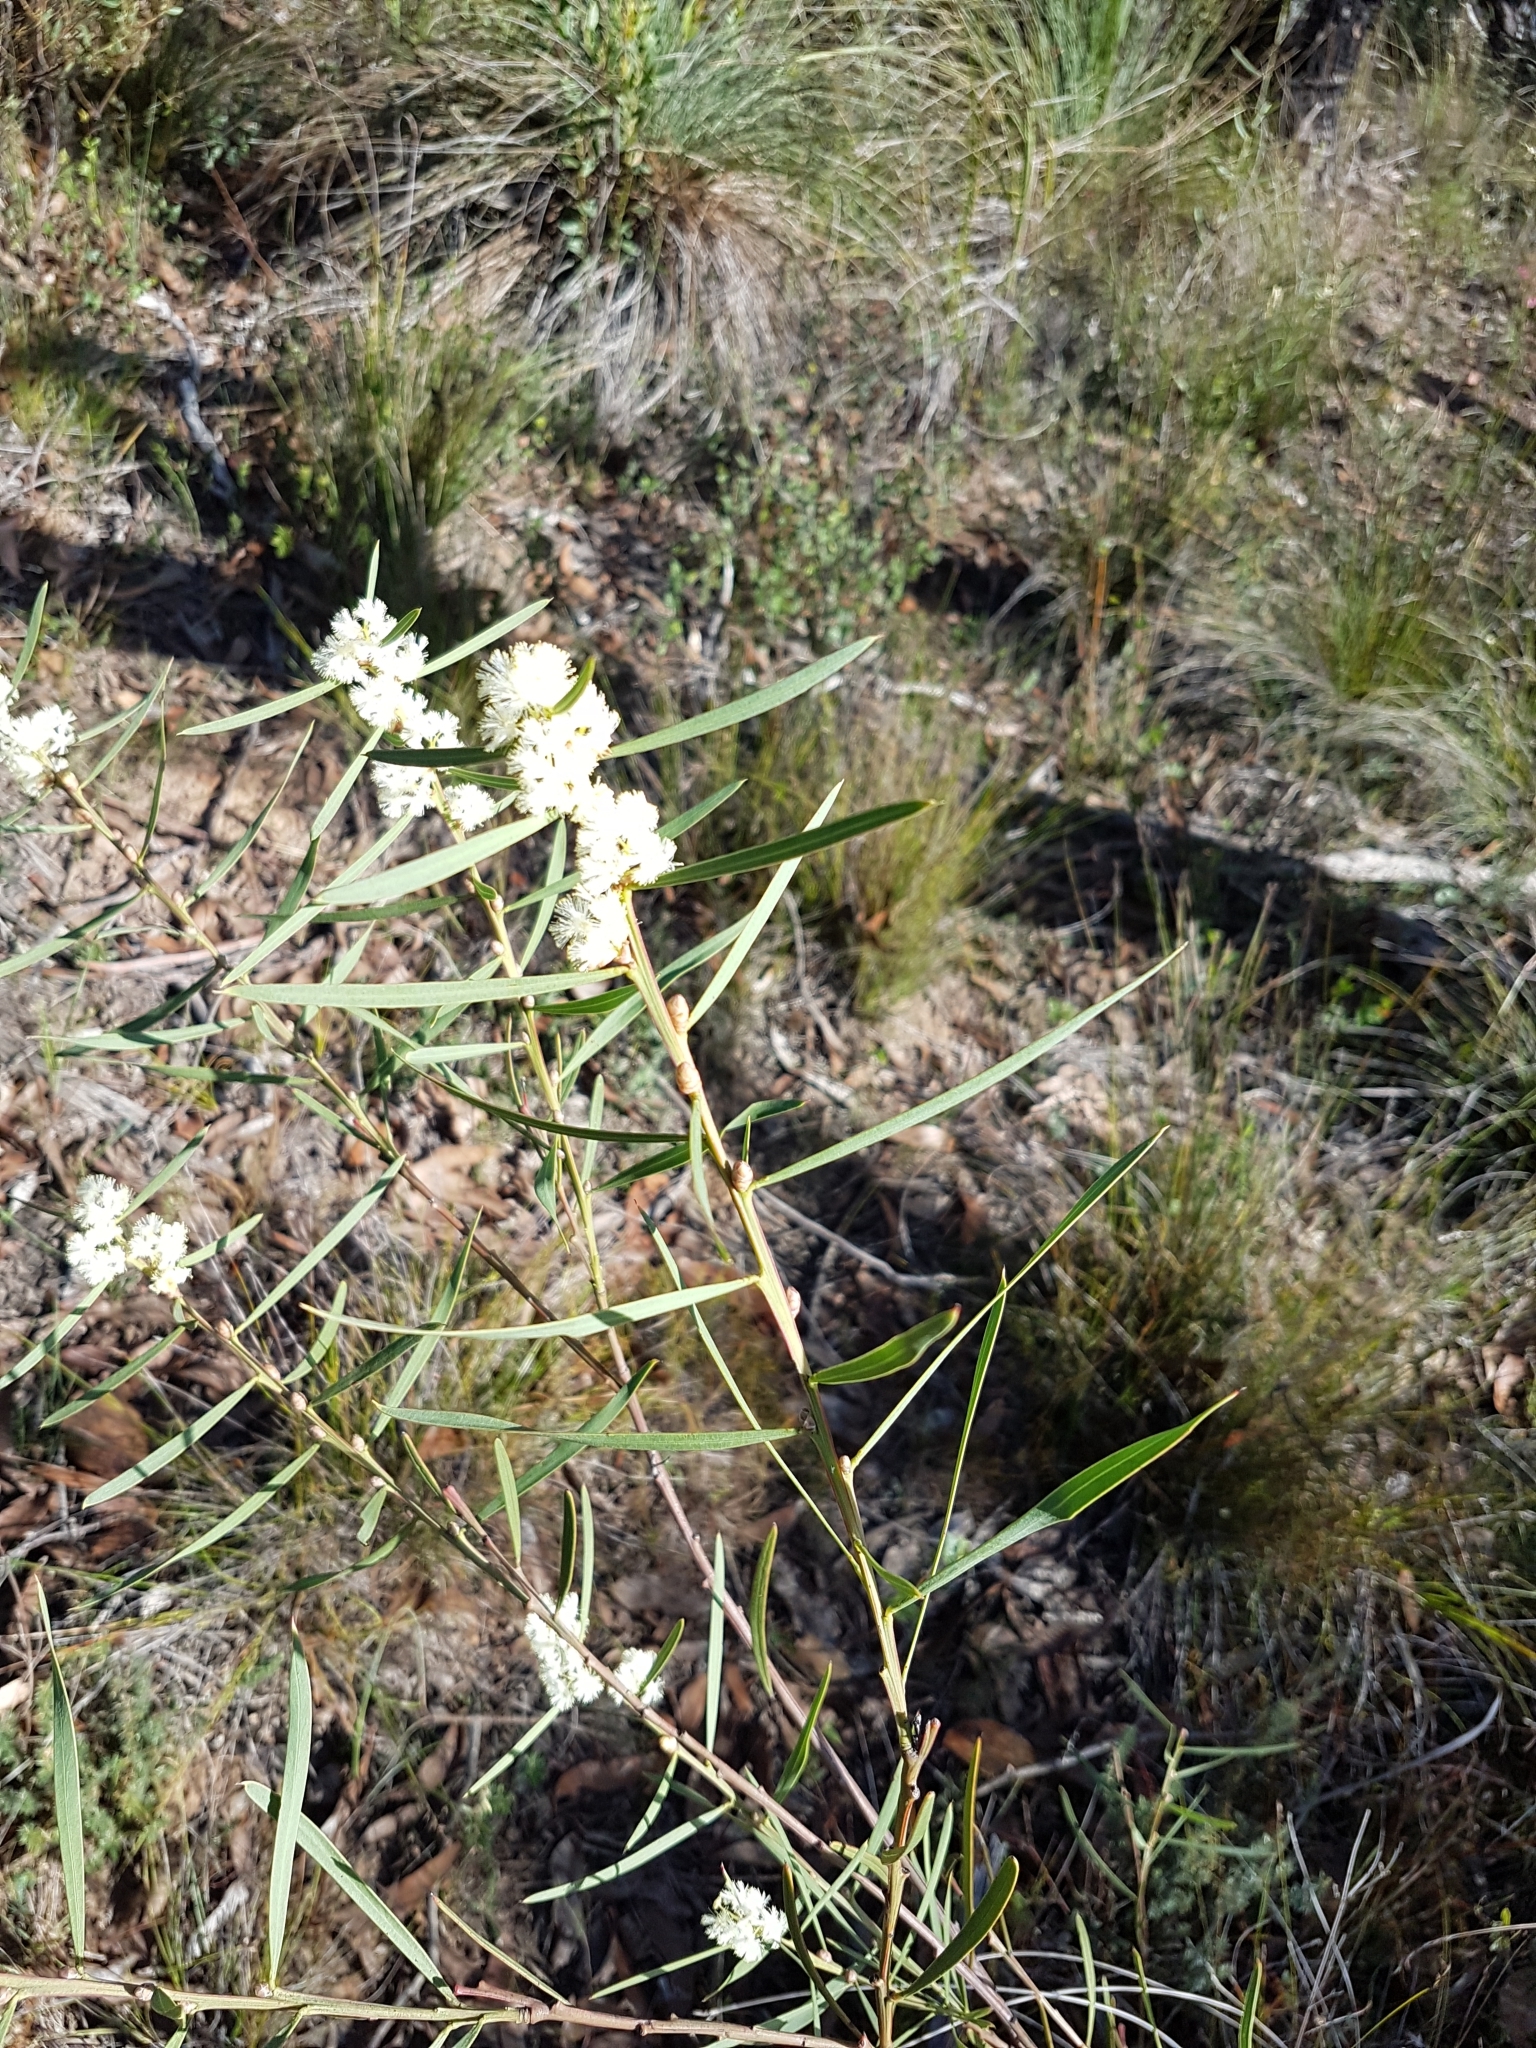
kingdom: Plantae
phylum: Tracheophyta
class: Magnoliopsida
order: Fabales
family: Fabaceae
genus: Acacia
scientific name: Acacia suaveolens
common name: Sweet acacia
